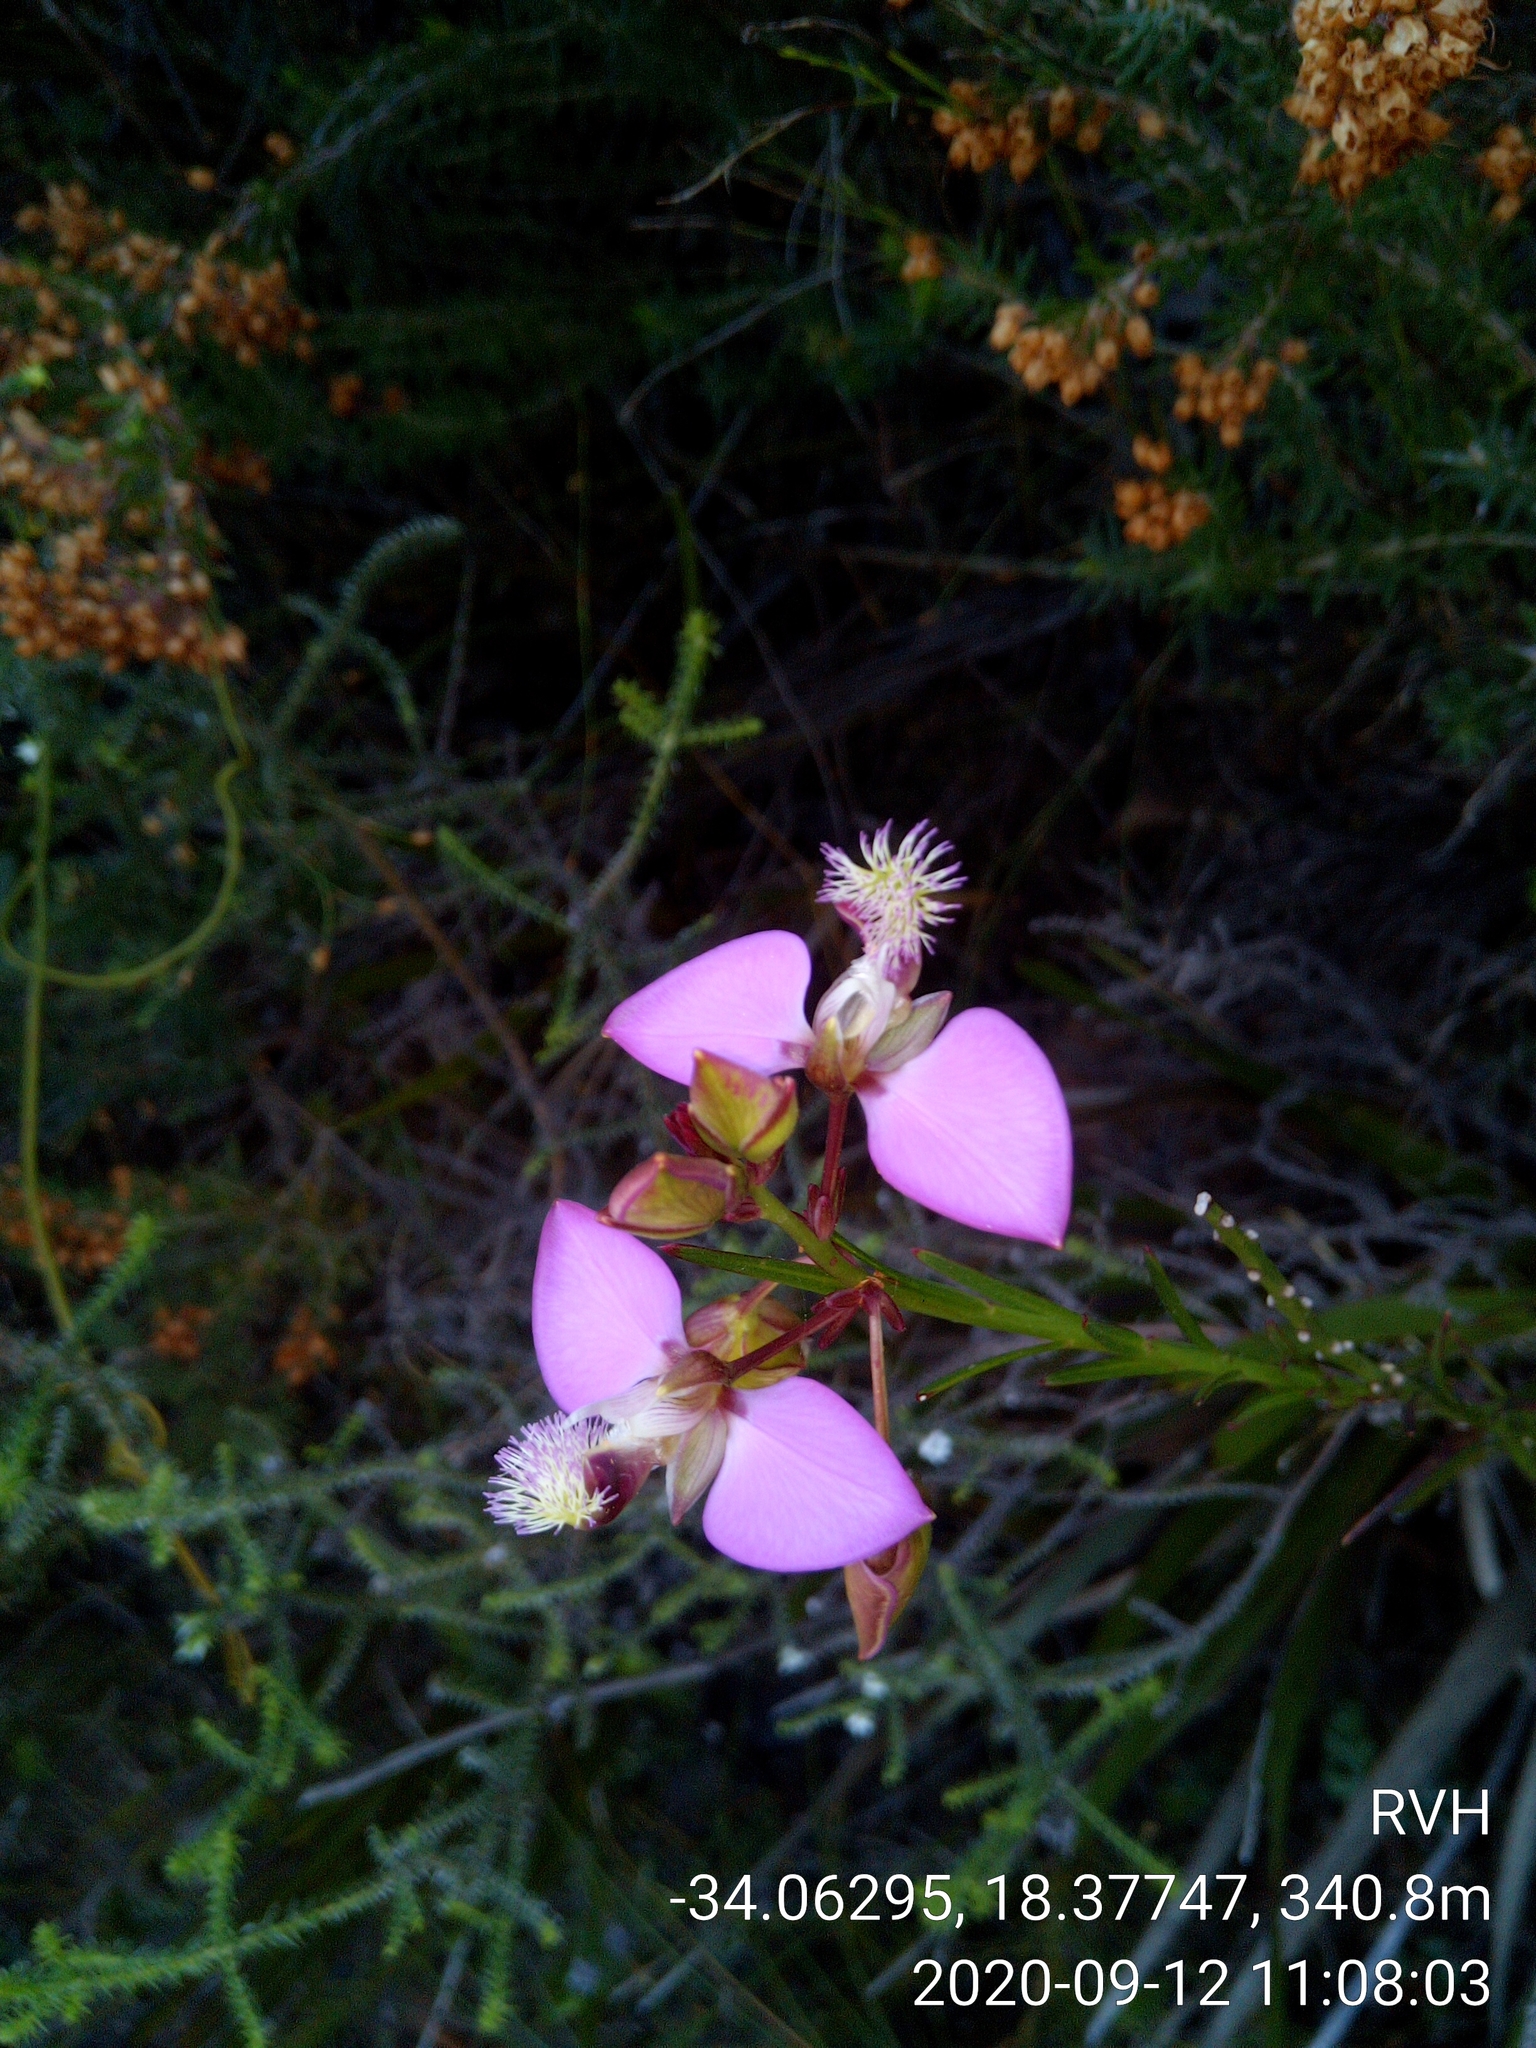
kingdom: Plantae
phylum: Tracheophyta
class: Magnoliopsida
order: Fabales
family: Polygalaceae
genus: Polygala
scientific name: Polygala bracteolata
